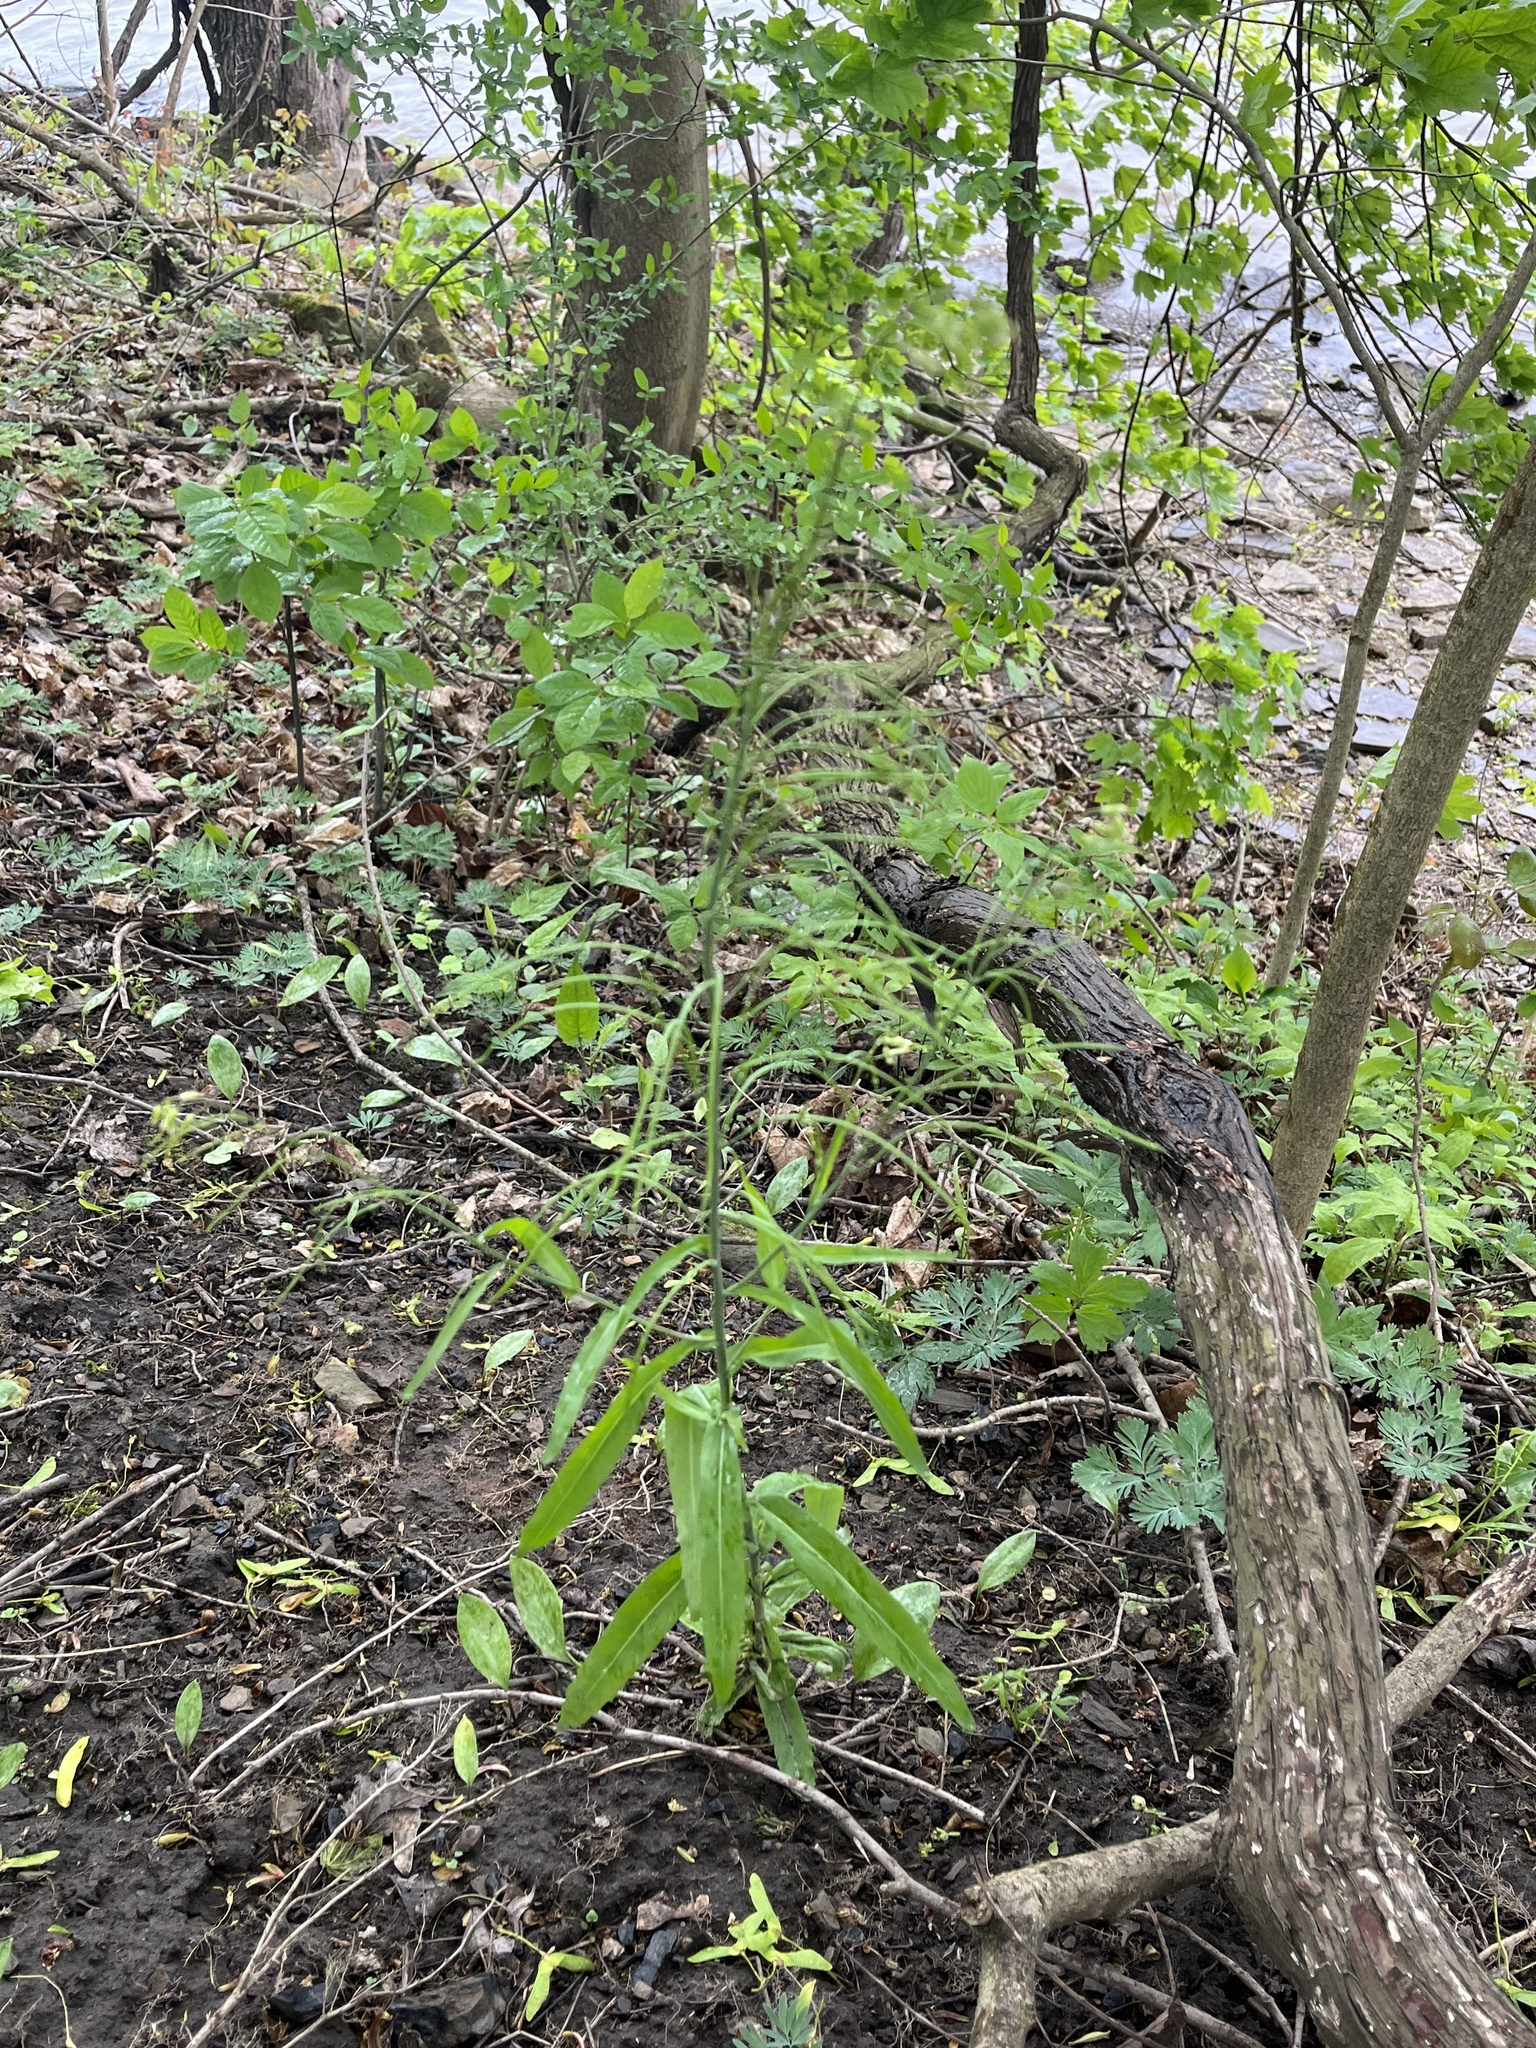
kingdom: Plantae
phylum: Tracheophyta
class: Magnoliopsida
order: Brassicales
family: Brassicaceae
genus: Borodinia
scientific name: Borodinia laevigata
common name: Smooth rockcress
